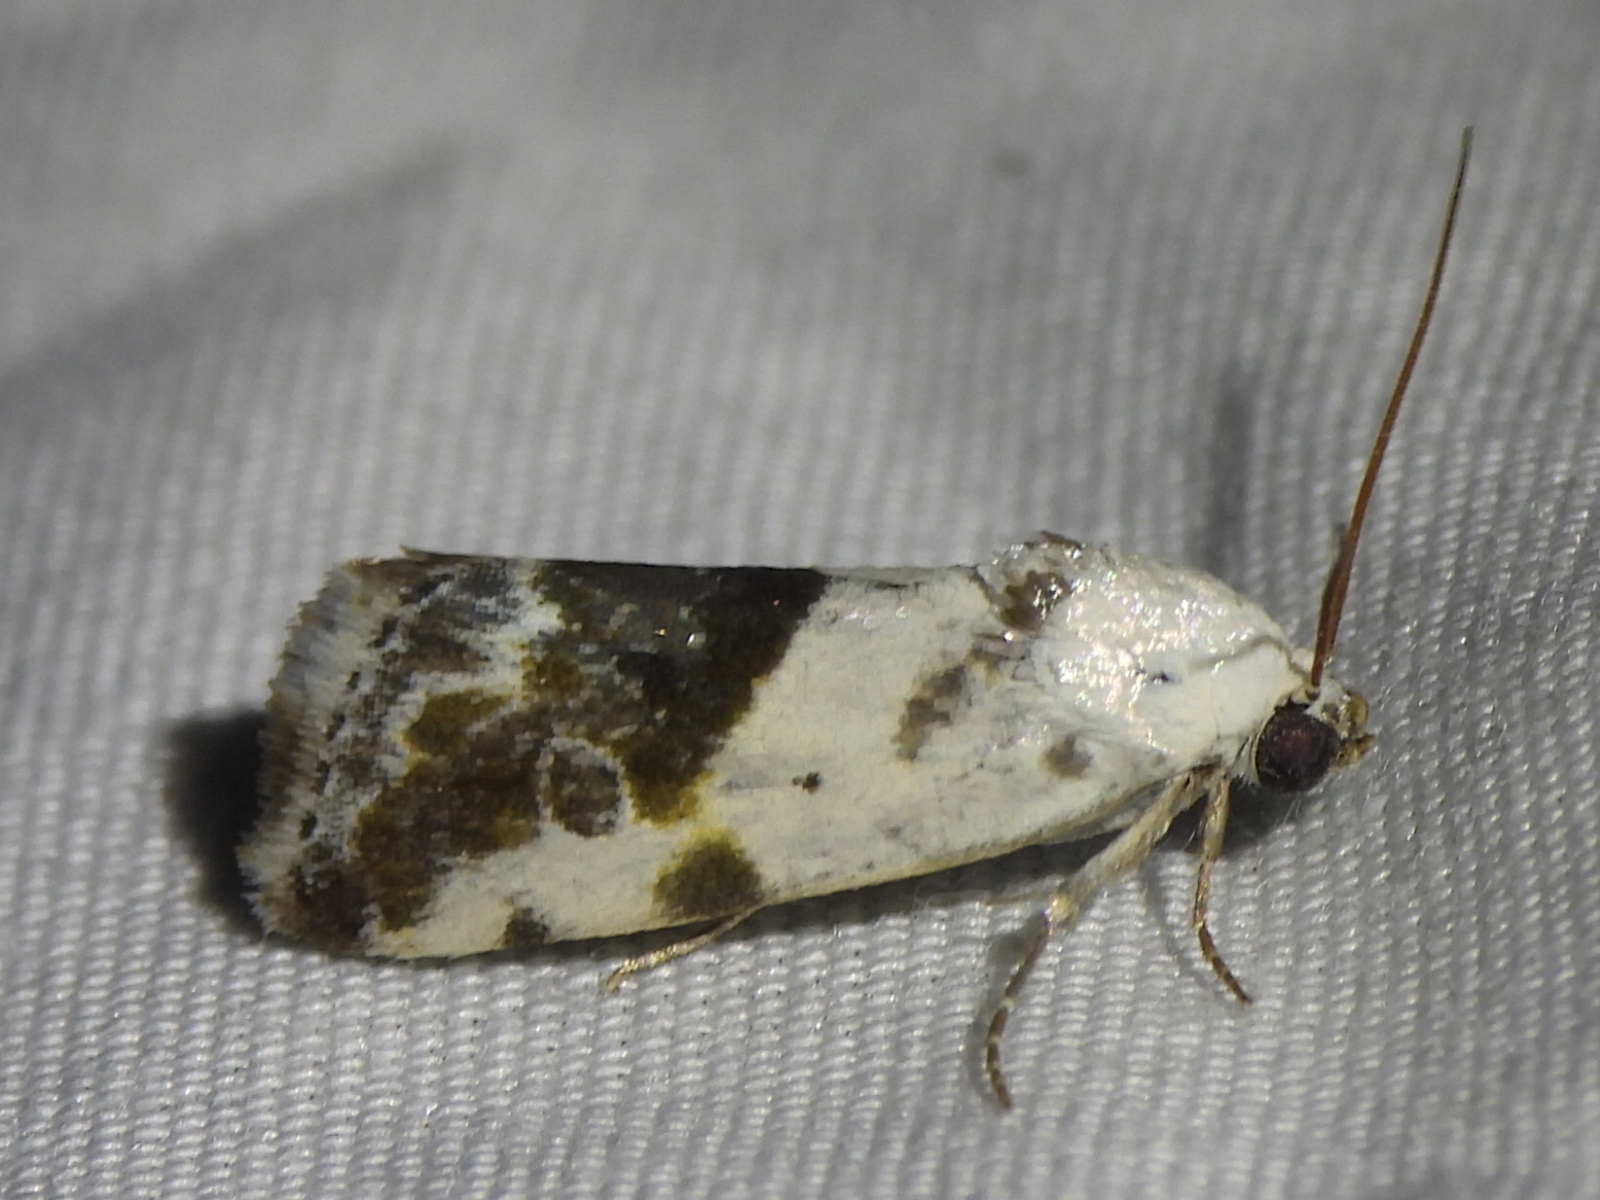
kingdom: Animalia
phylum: Arthropoda
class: Insecta
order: Lepidoptera
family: Noctuidae
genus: Acontia
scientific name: Acontia candefacta
